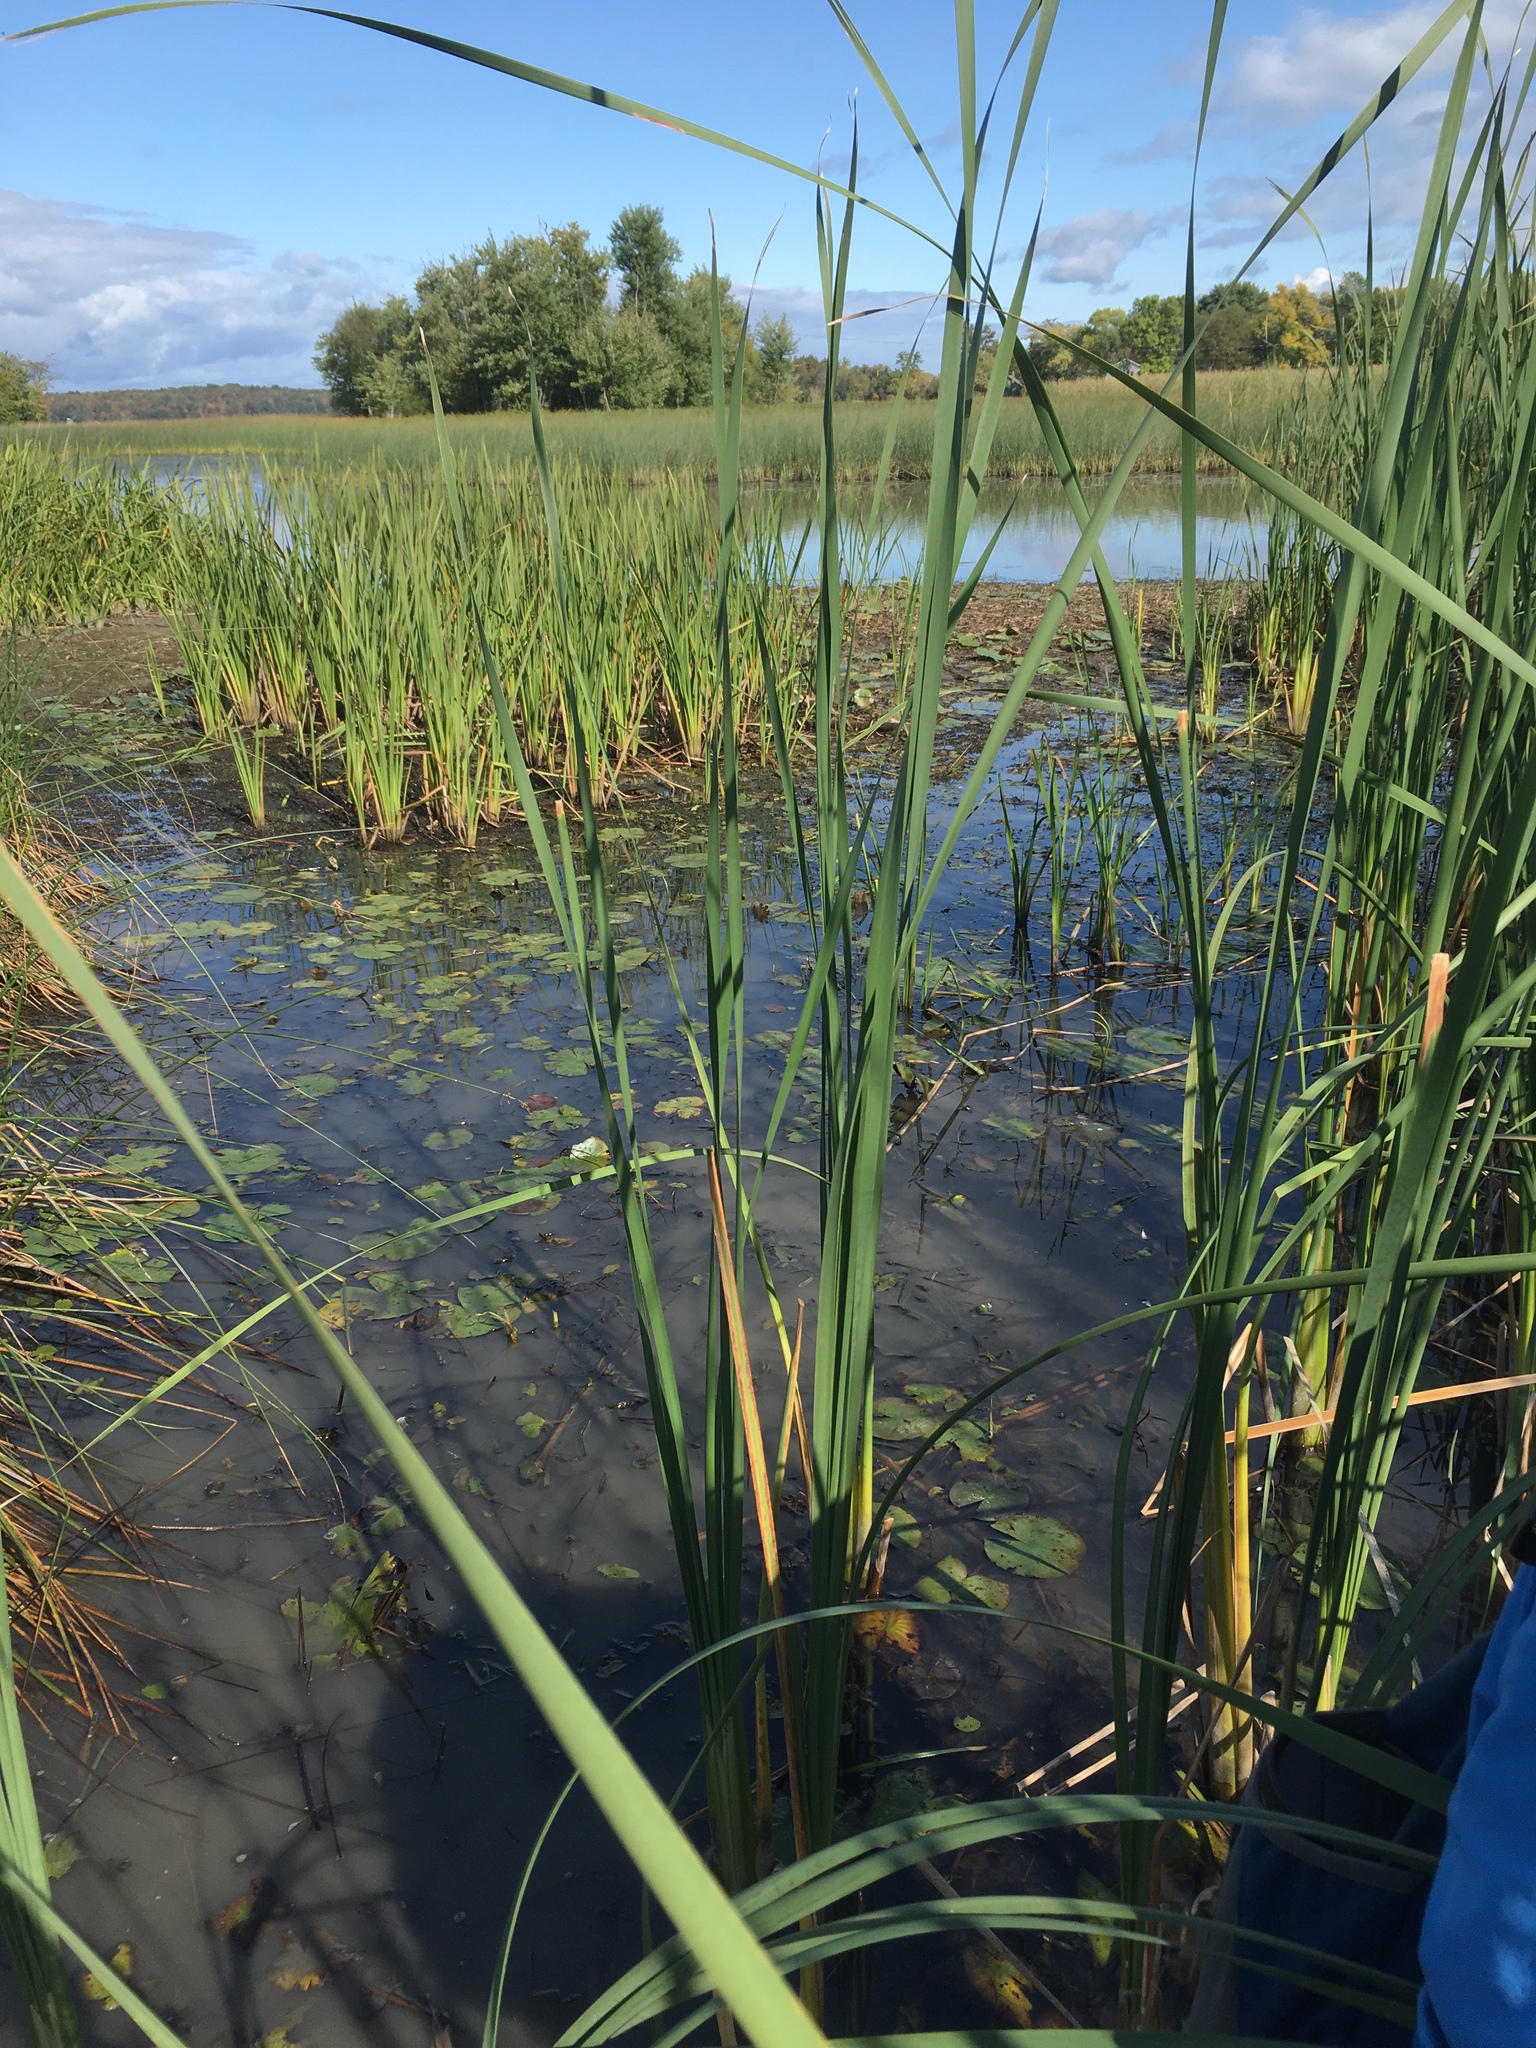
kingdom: Plantae
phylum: Tracheophyta
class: Liliopsida
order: Poales
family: Typhaceae
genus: Typha
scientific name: Typha latifolia
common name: Broadleaf cattail
